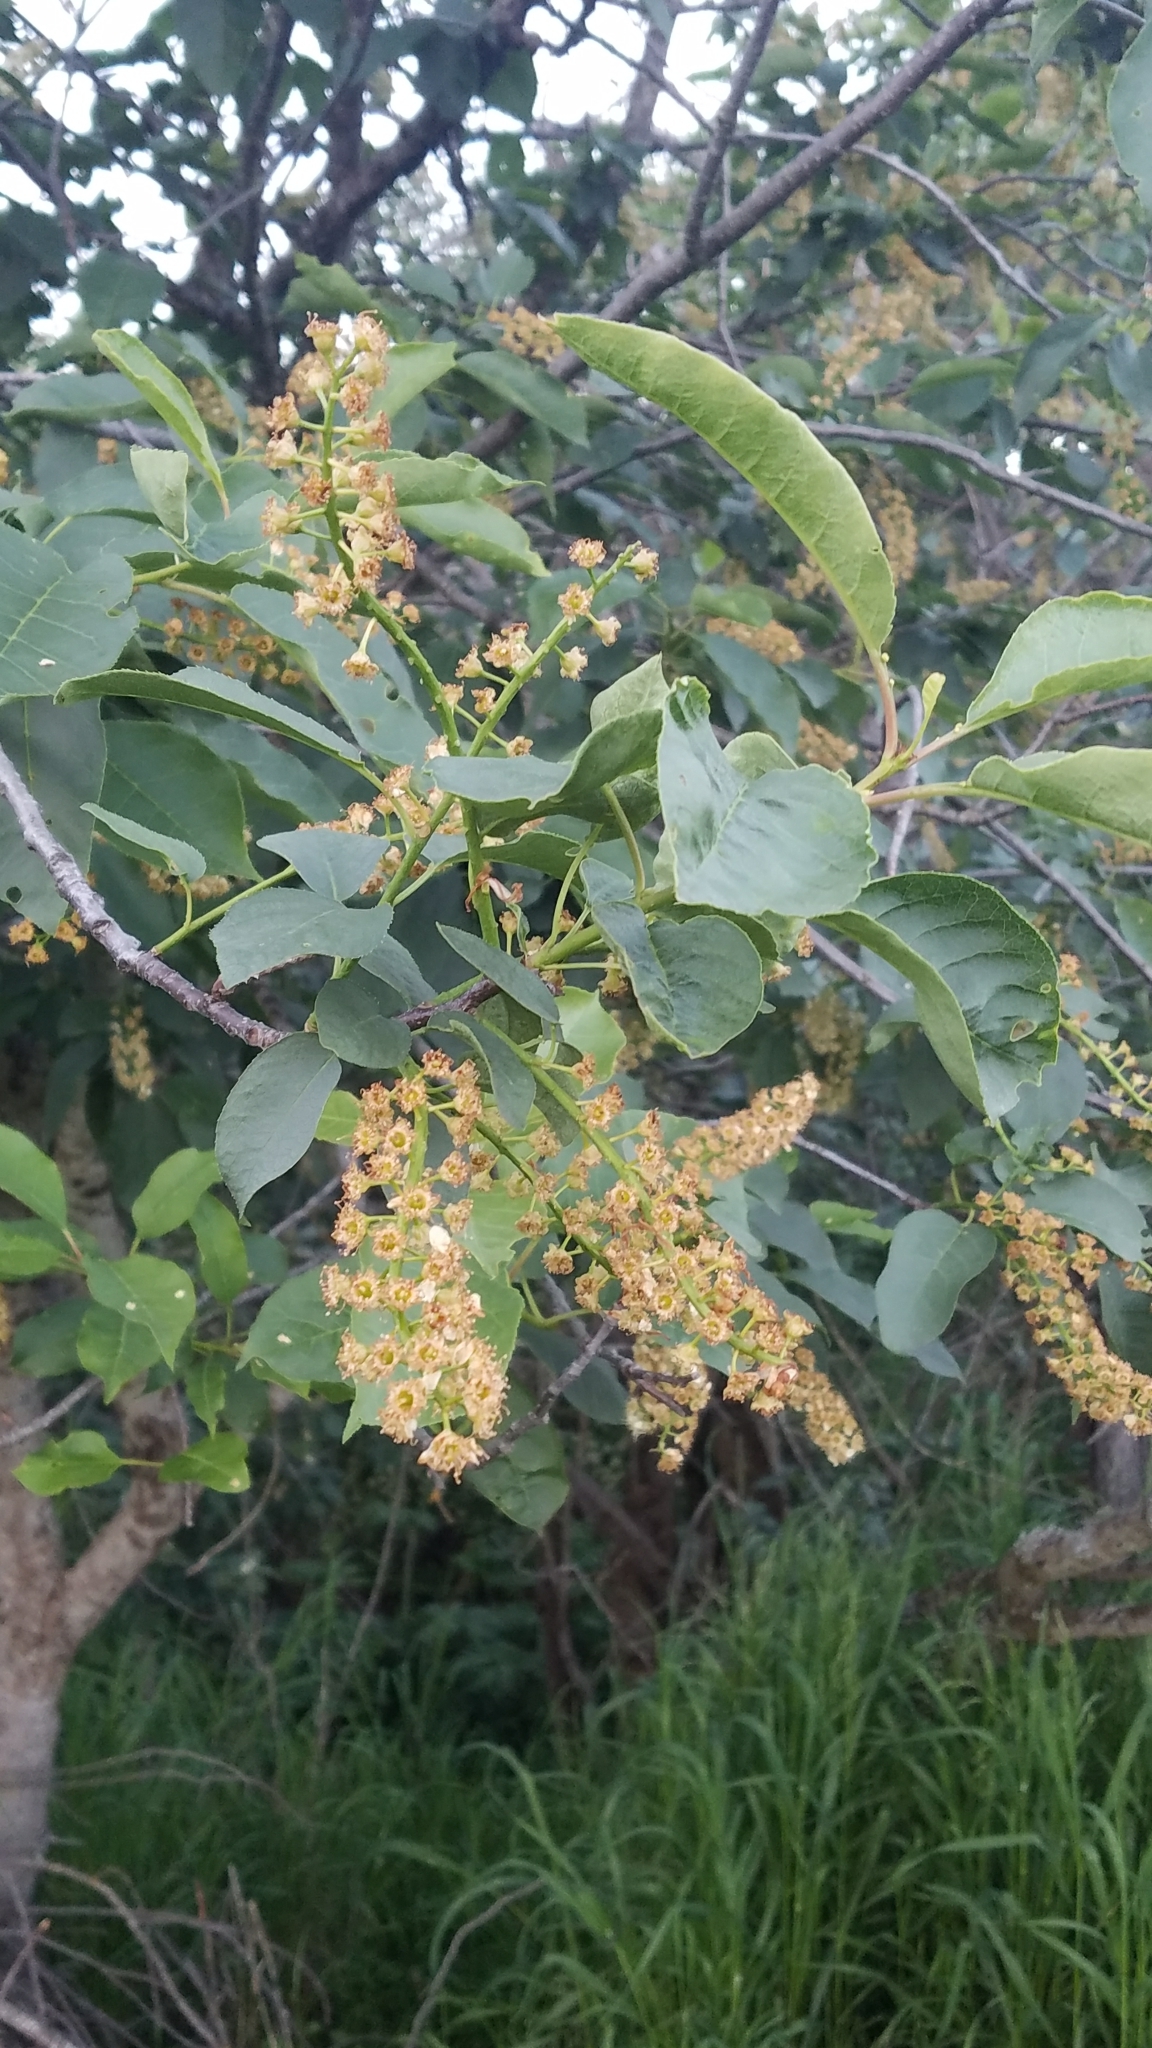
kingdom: Plantae
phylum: Tracheophyta
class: Magnoliopsida
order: Rosales
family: Rosaceae
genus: Prunus
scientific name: Prunus virginiana
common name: Chokecherry
